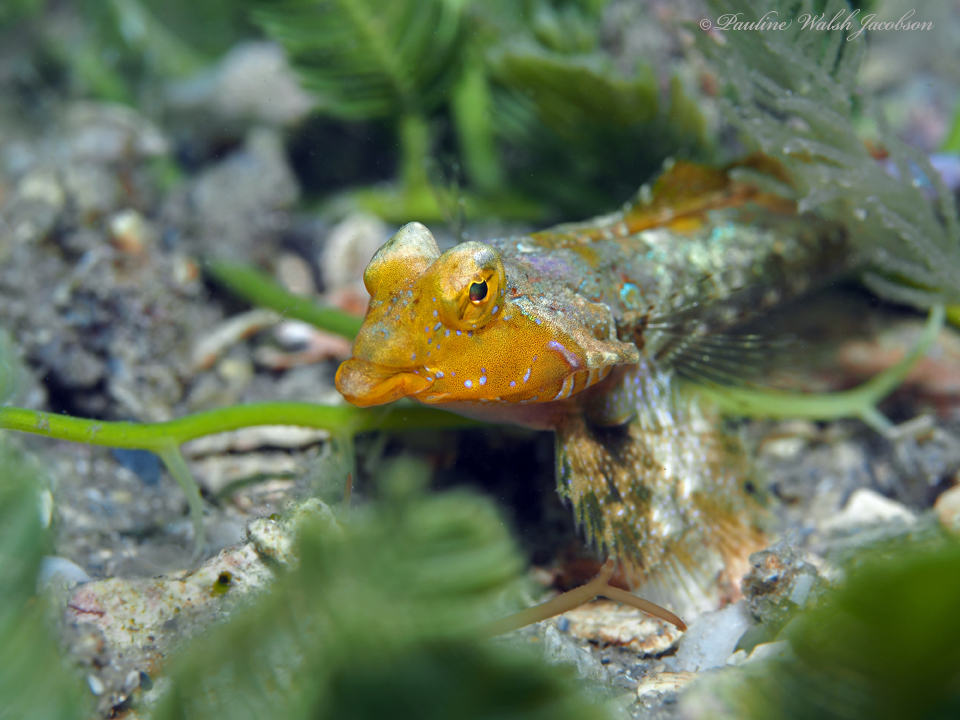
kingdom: Animalia
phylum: Chordata
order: Perciformes
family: Callionymidae
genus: Callionymus
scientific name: Callionymus bairdi
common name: Lancer dragonet
